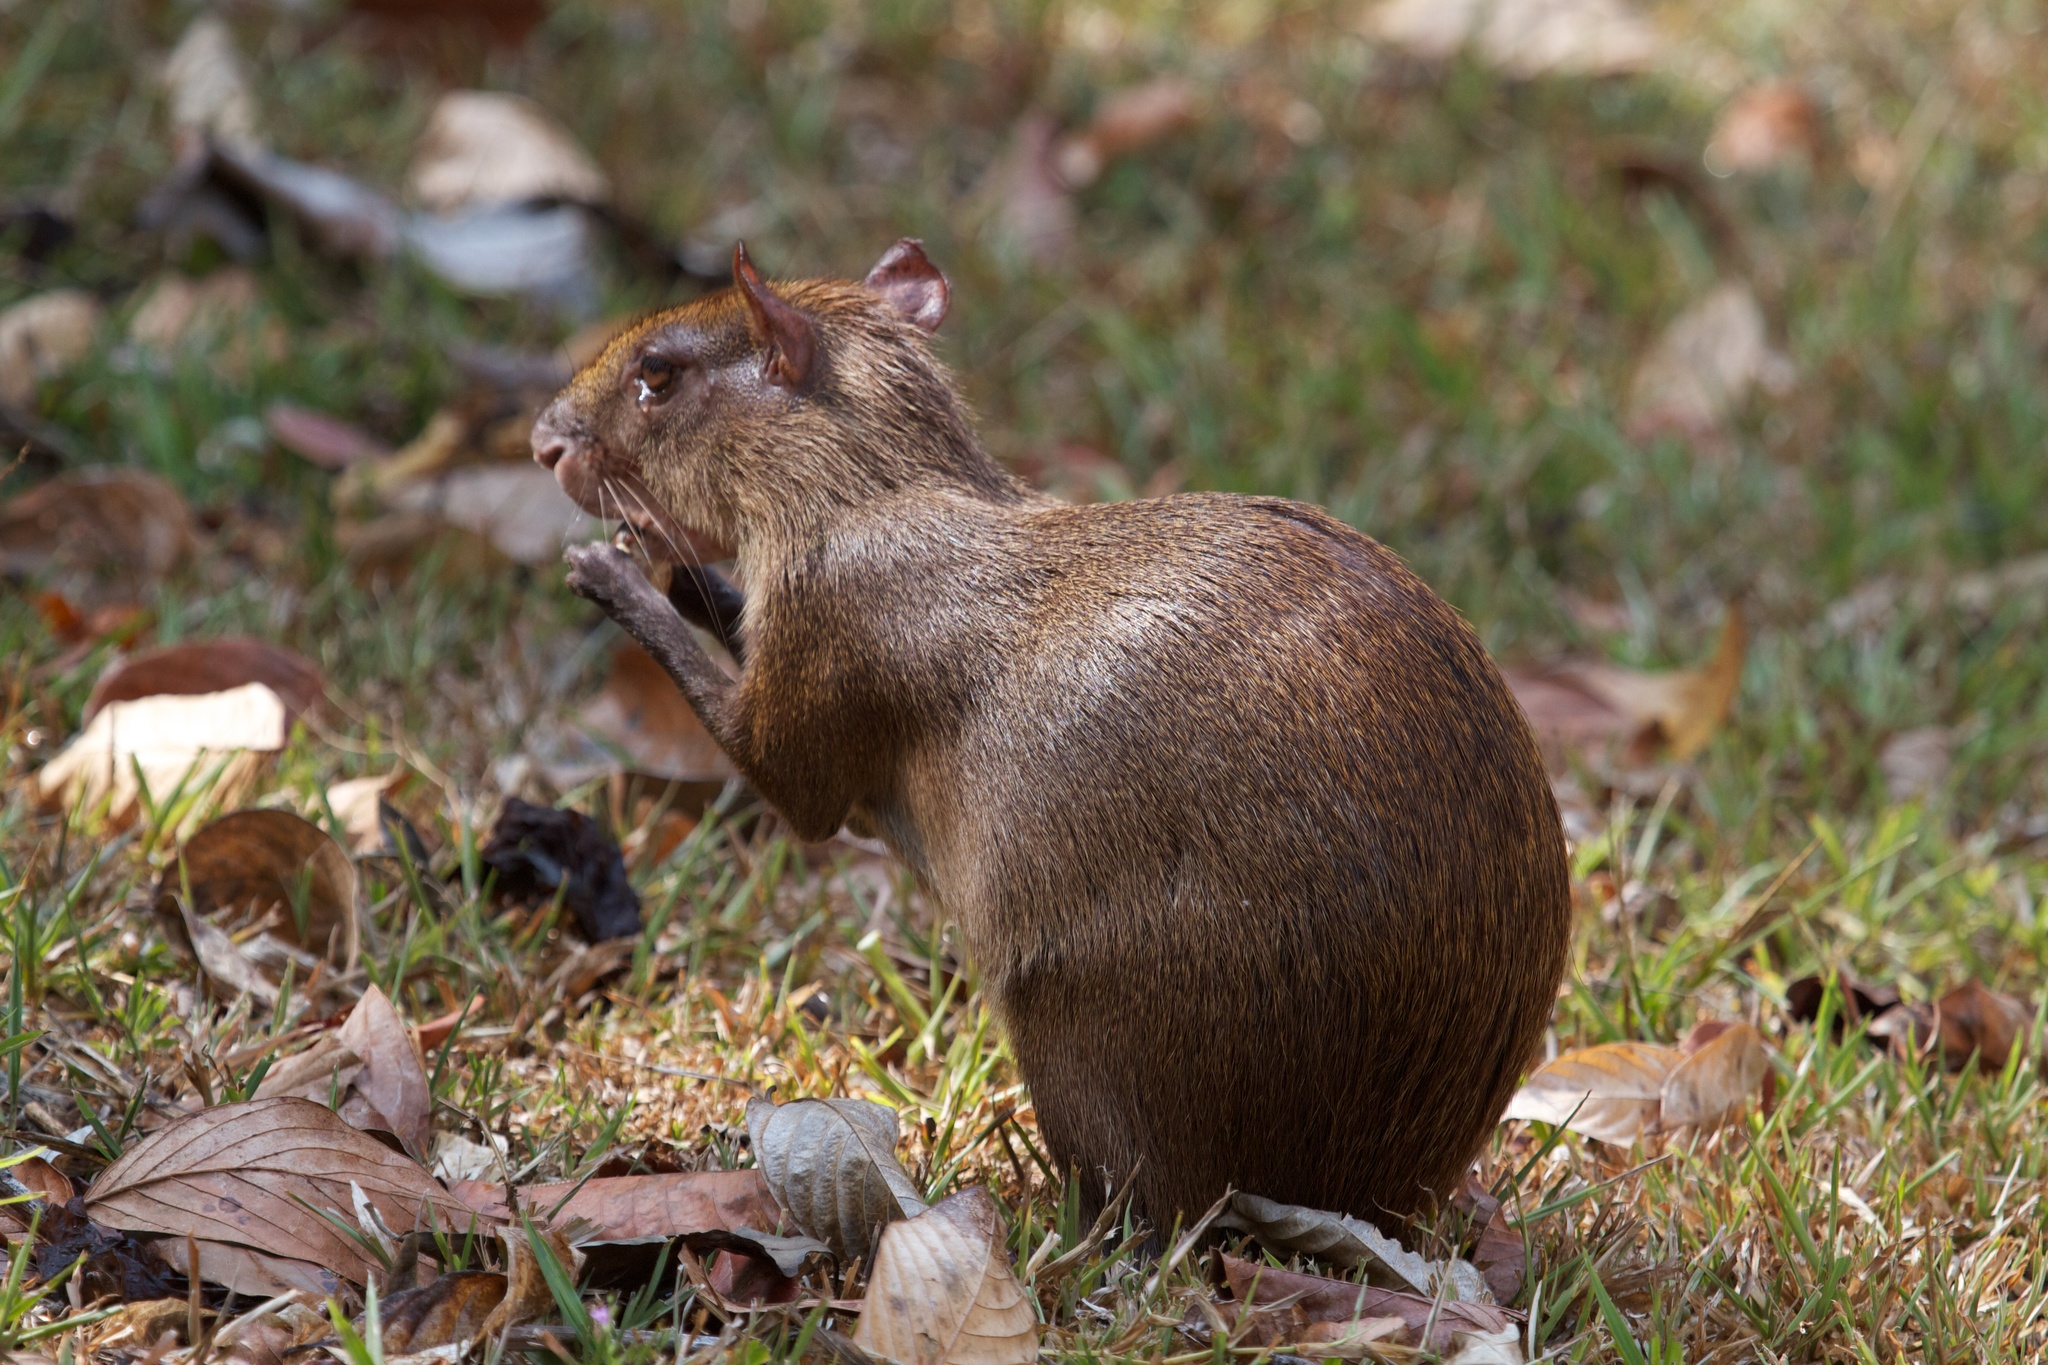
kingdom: Animalia
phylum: Chordata
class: Mammalia
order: Rodentia
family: Dasyproctidae
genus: Dasyprocta
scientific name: Dasyprocta punctata
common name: Central american agouti
